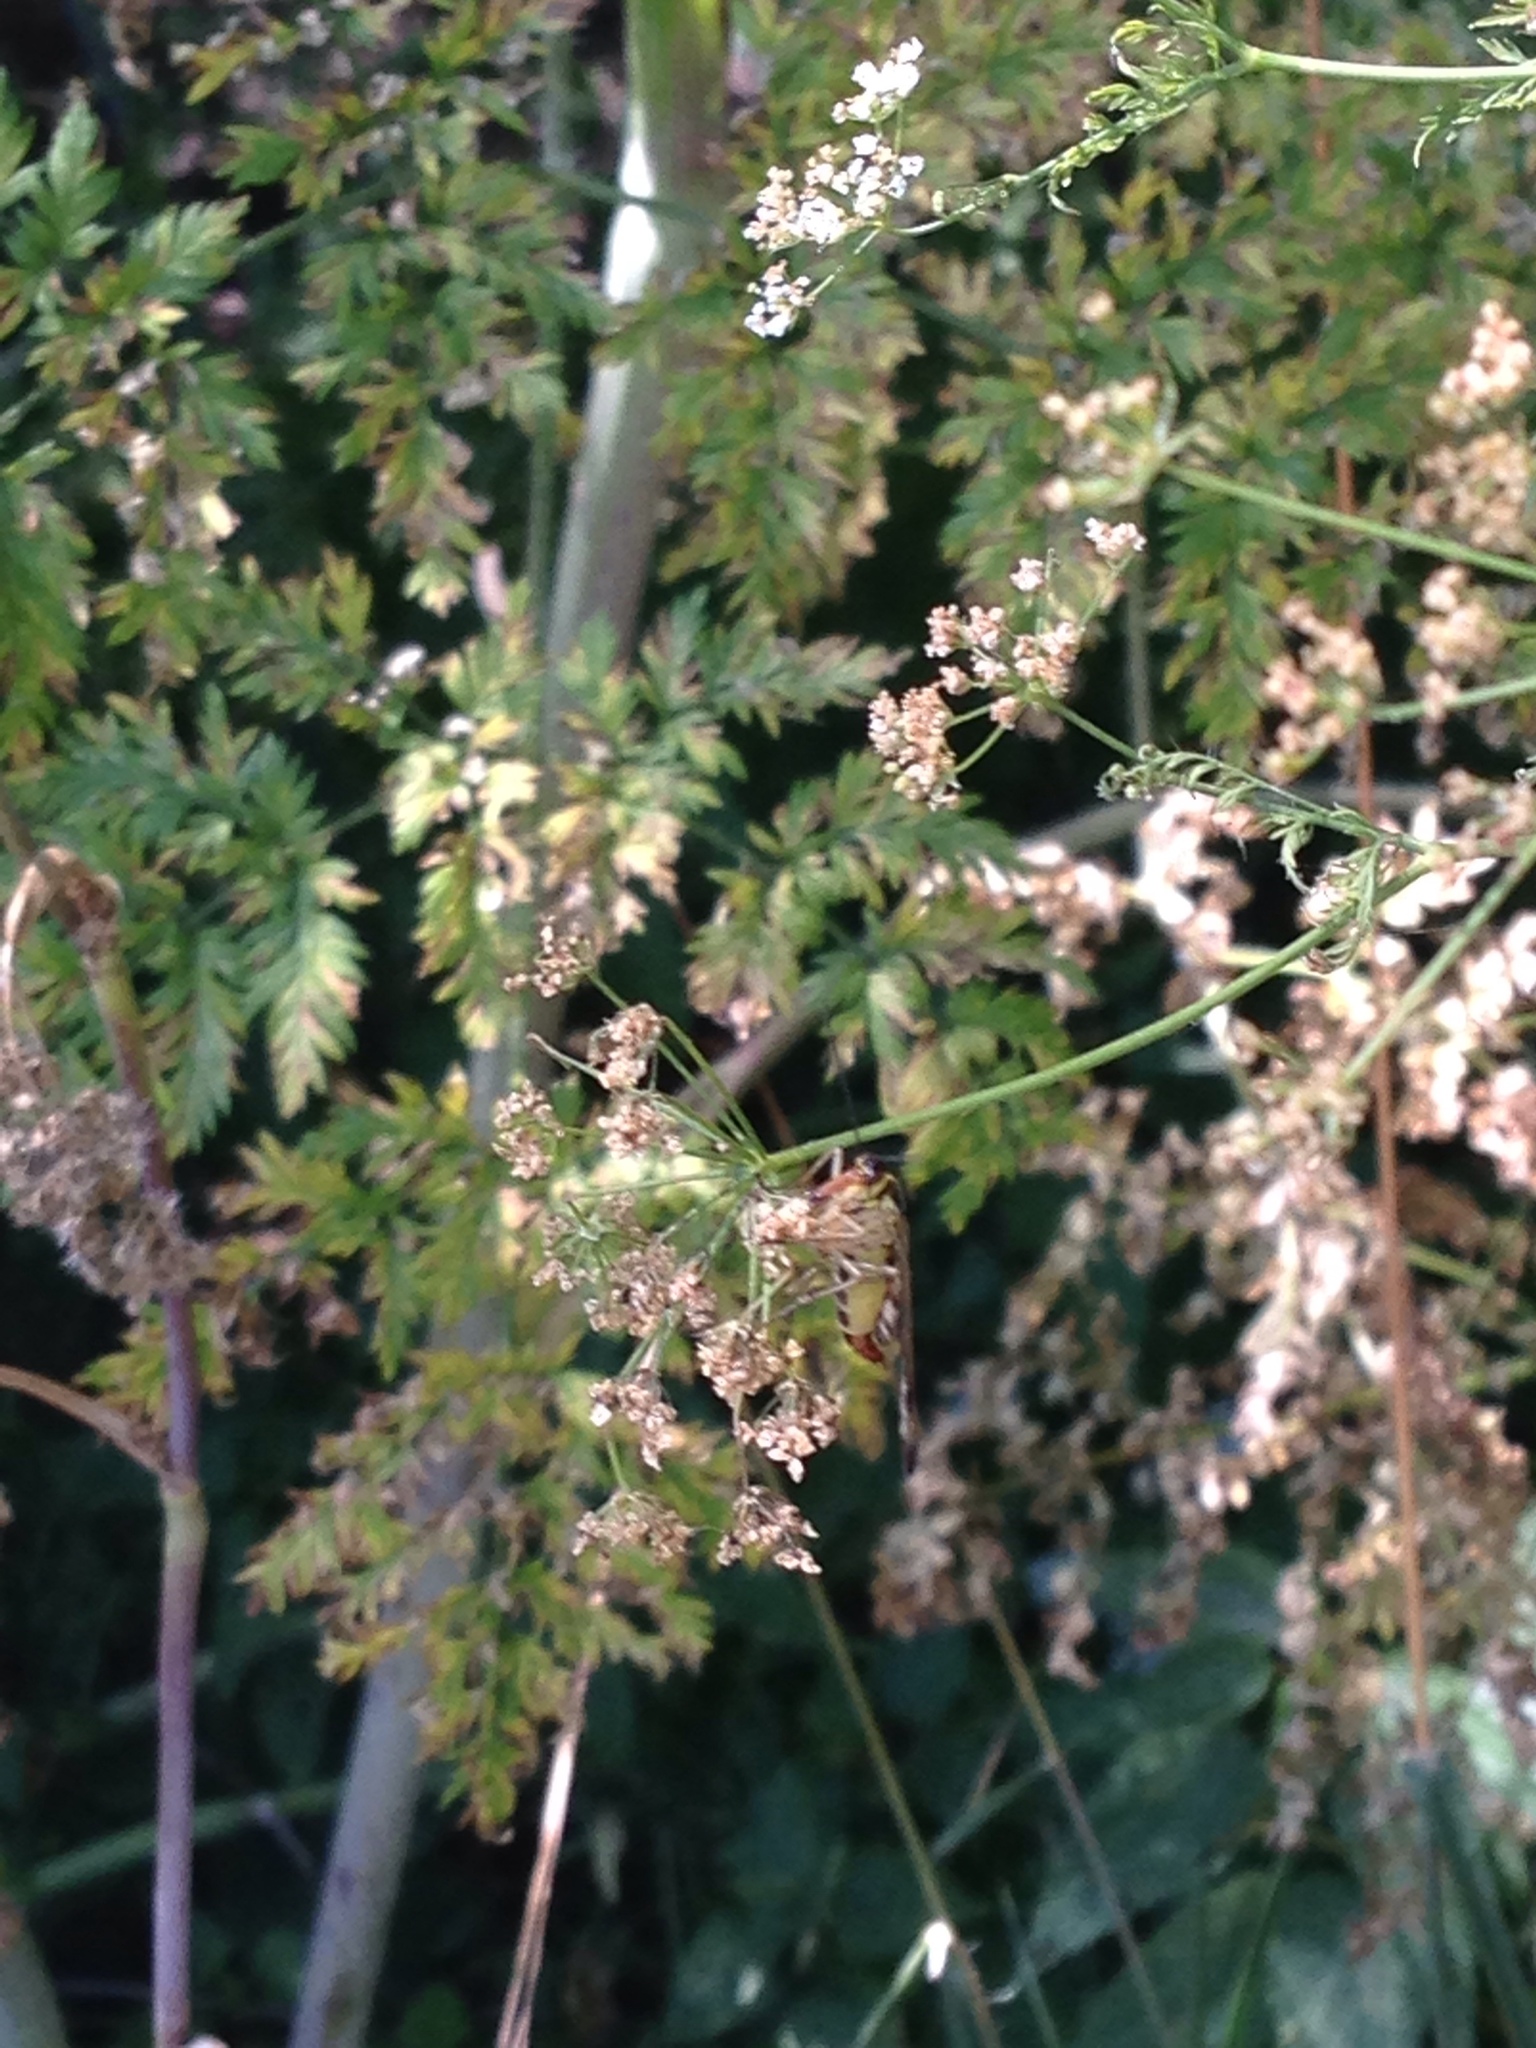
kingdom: Animalia
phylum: Arthropoda
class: Insecta
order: Mecoptera
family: Panorpidae
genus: Panorpa
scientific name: Panorpa
